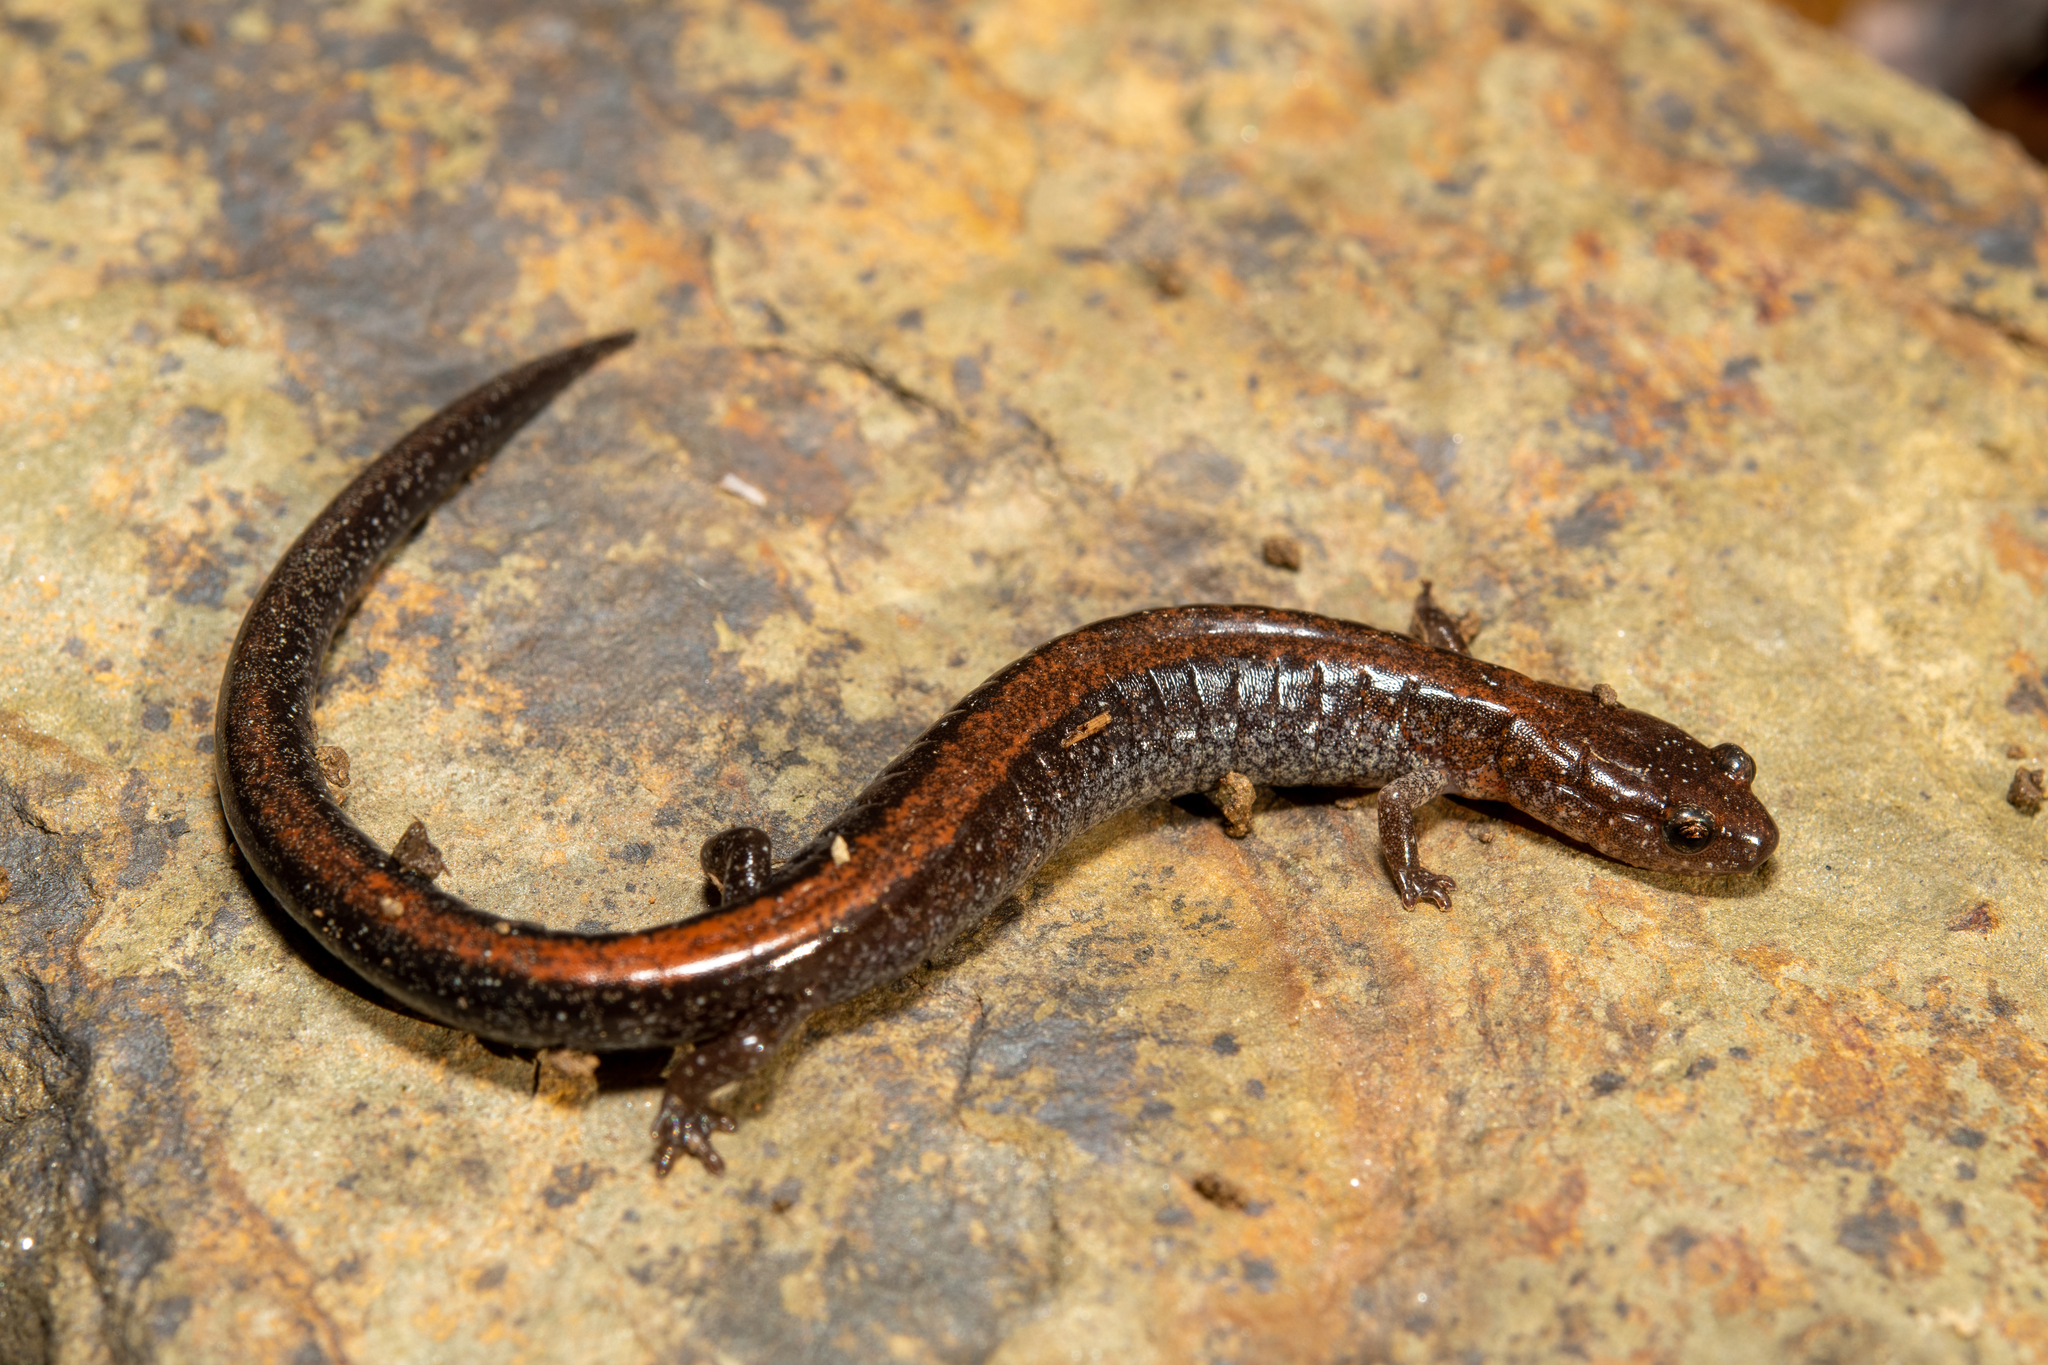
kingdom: Animalia
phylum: Chordata
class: Amphibia
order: Caudata
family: Plethodontidae
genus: Plethodon
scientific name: Plethodon cinereus
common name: Redback salamander
